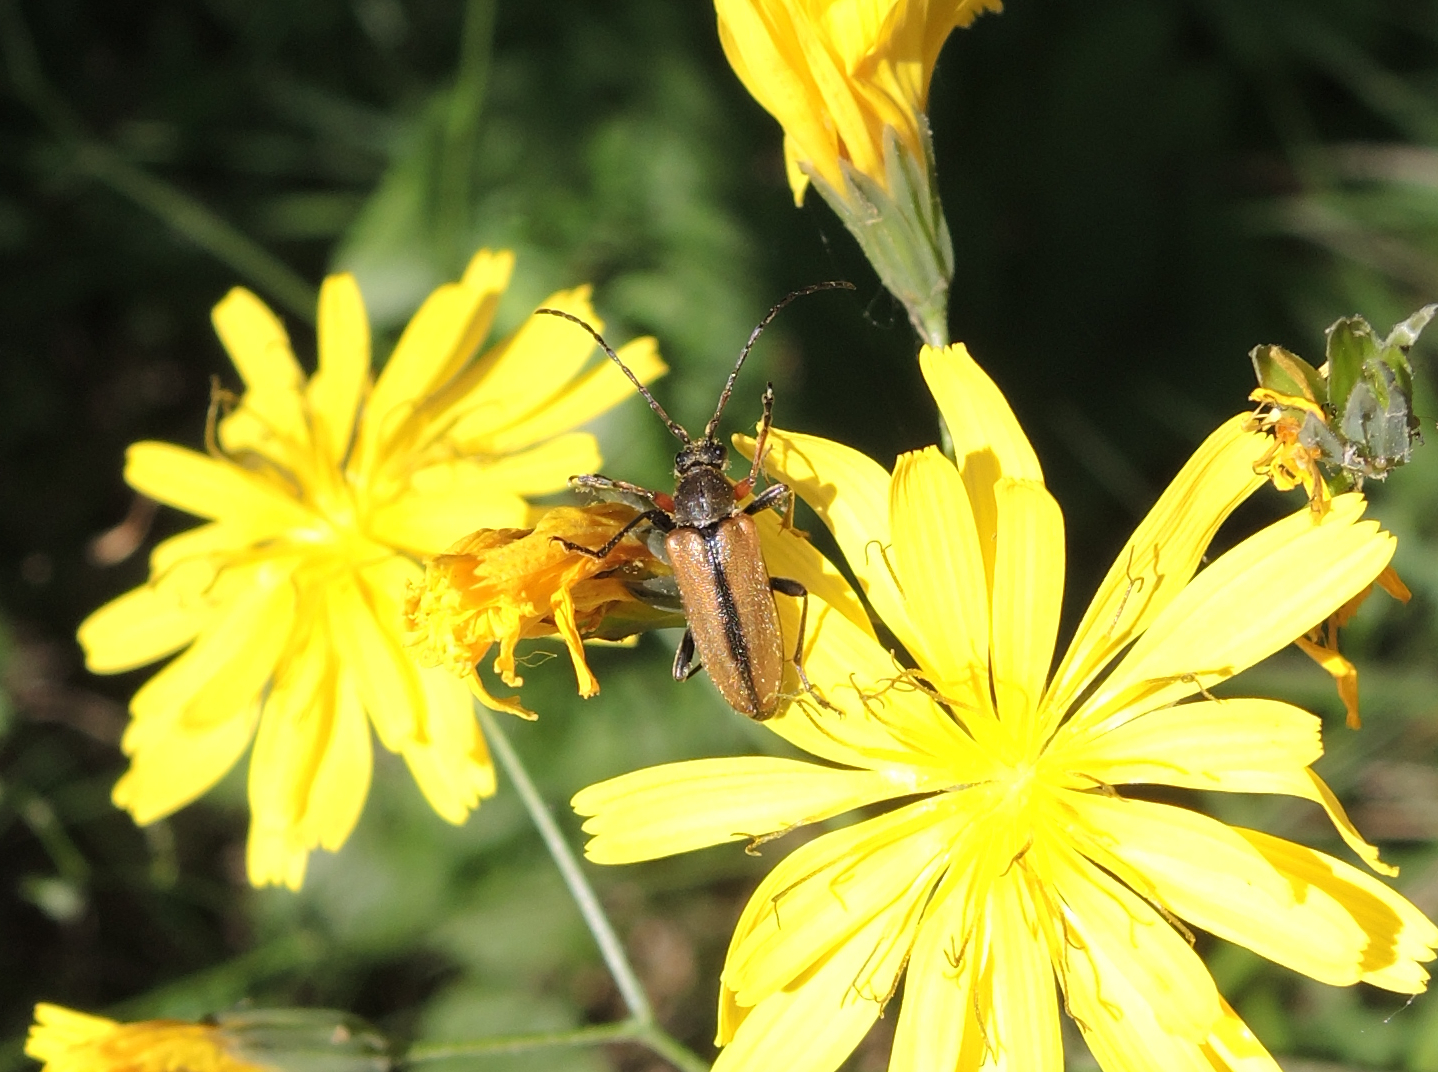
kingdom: Animalia
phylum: Arthropoda
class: Insecta
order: Coleoptera
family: Cerambycidae
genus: Cortodera
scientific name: Cortodera flavimana
